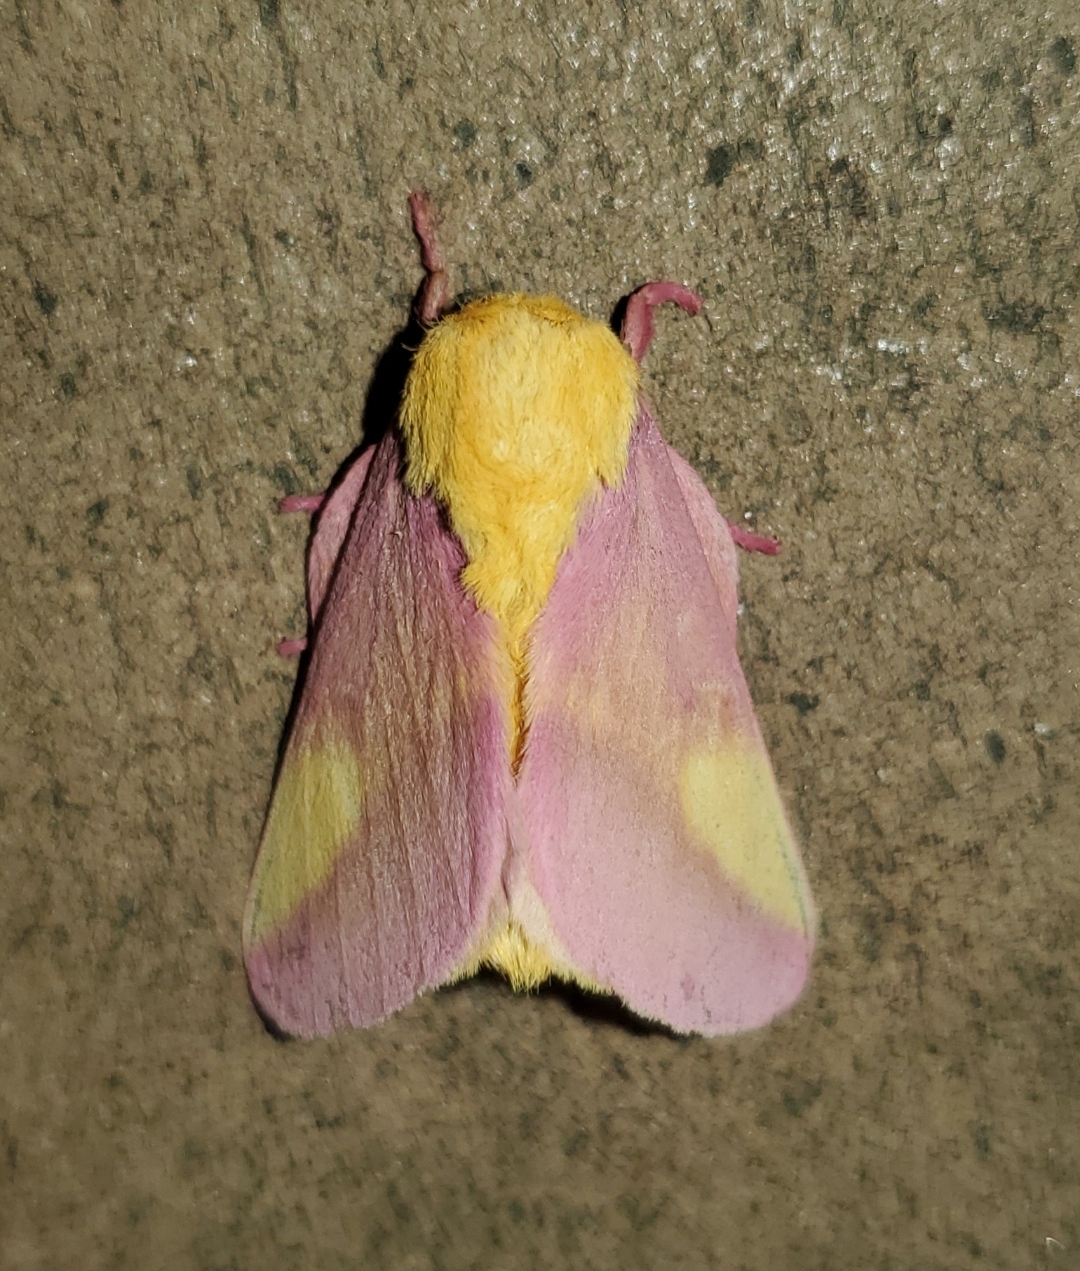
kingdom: Animalia
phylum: Arthropoda
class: Insecta
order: Lepidoptera
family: Saturniidae
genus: Dryocampa
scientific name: Dryocampa rubicunda
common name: Rosy maple moth
